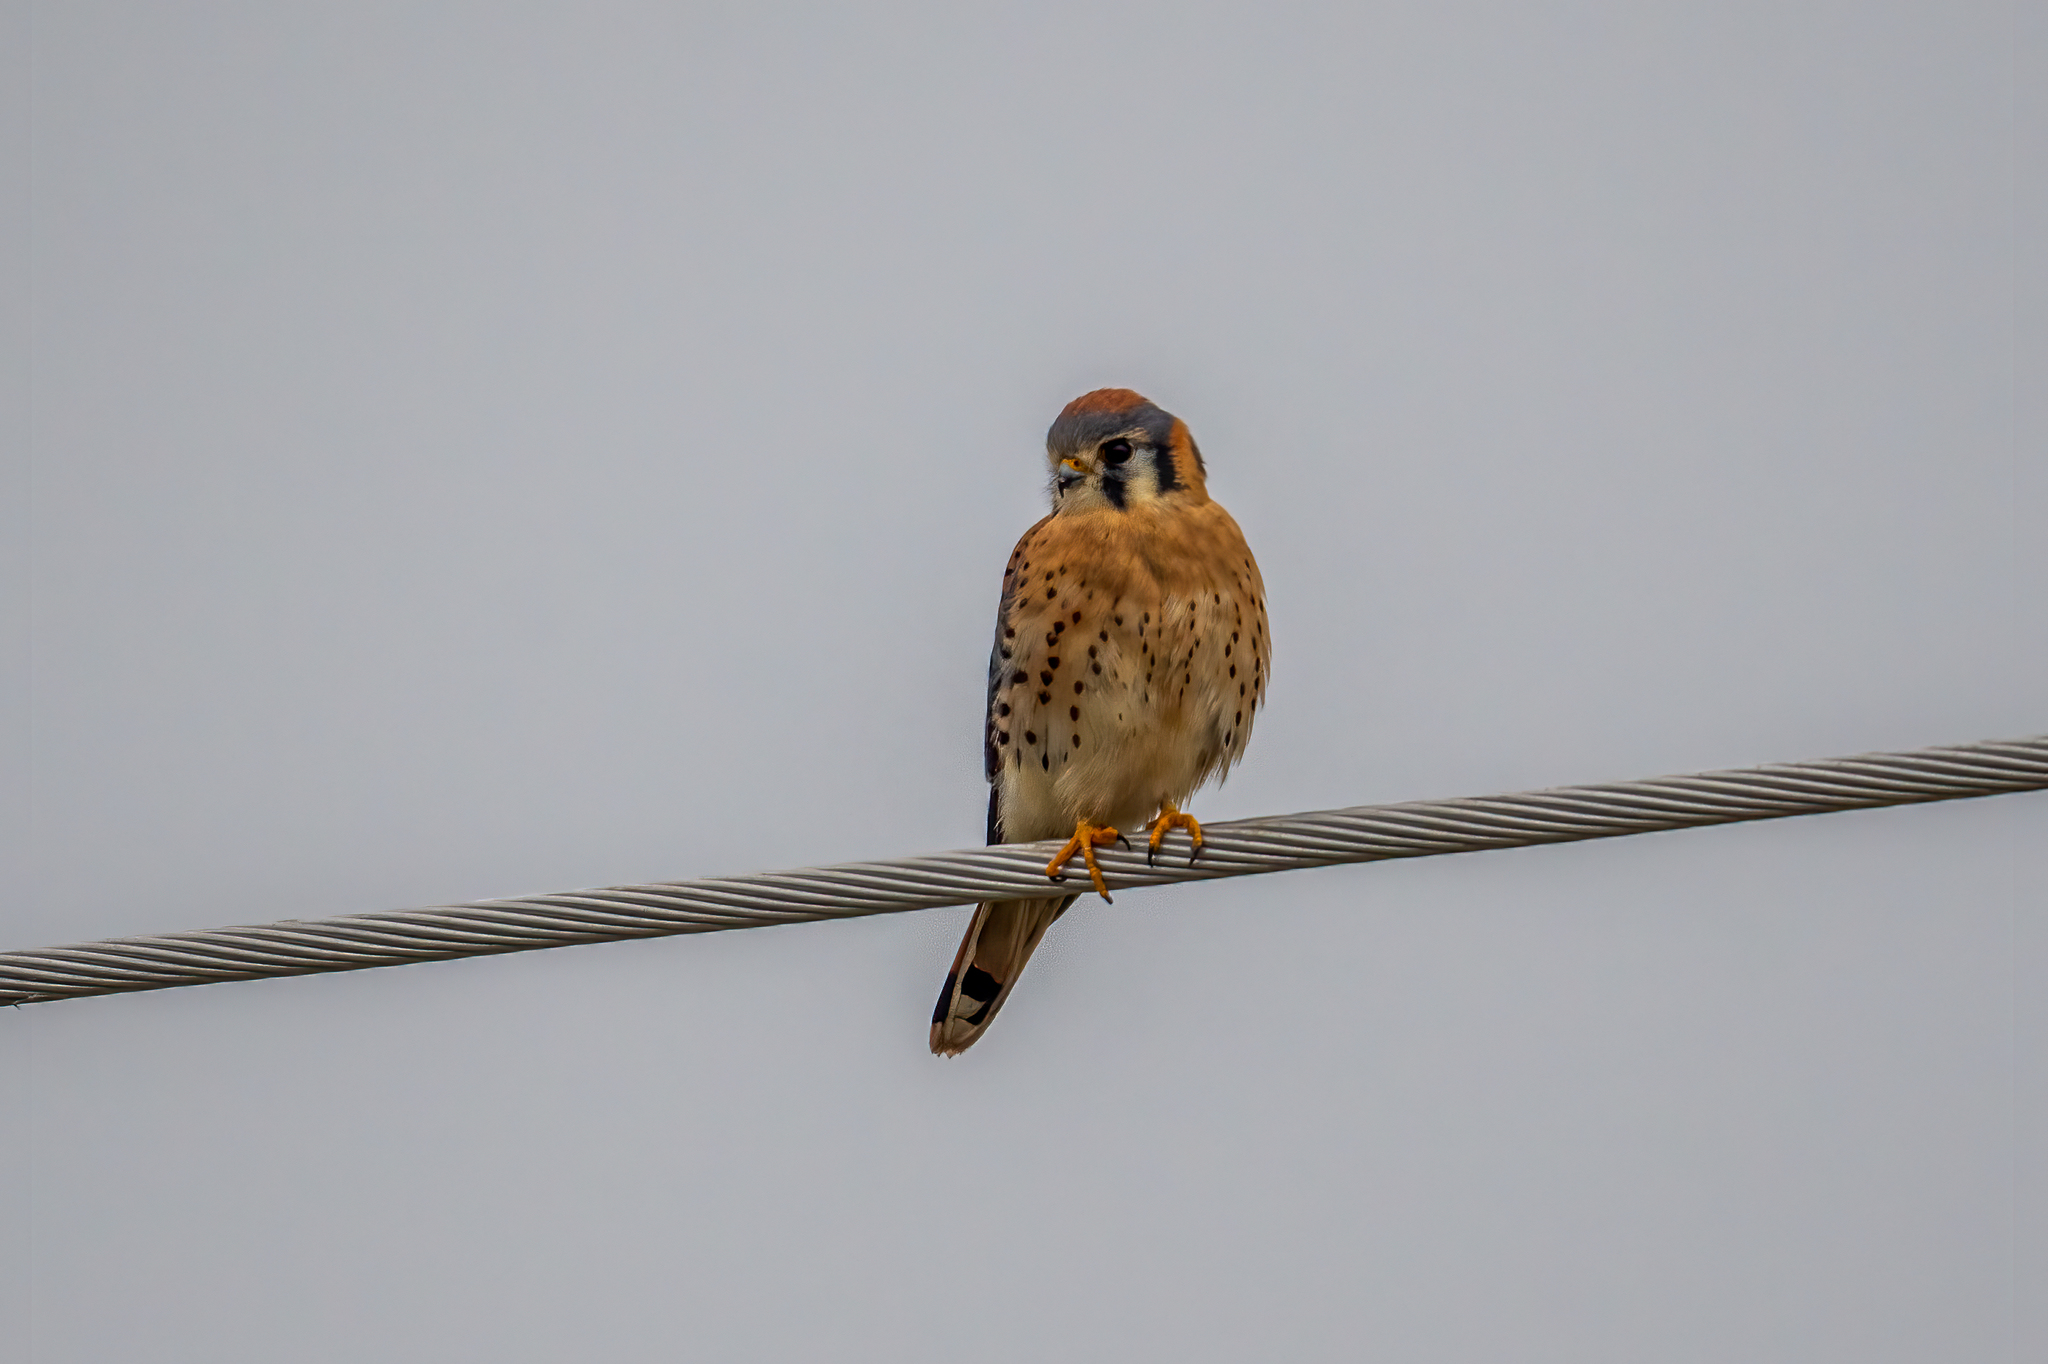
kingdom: Animalia
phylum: Chordata
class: Aves
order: Falconiformes
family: Falconidae
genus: Falco
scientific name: Falco sparverius
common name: American kestrel
